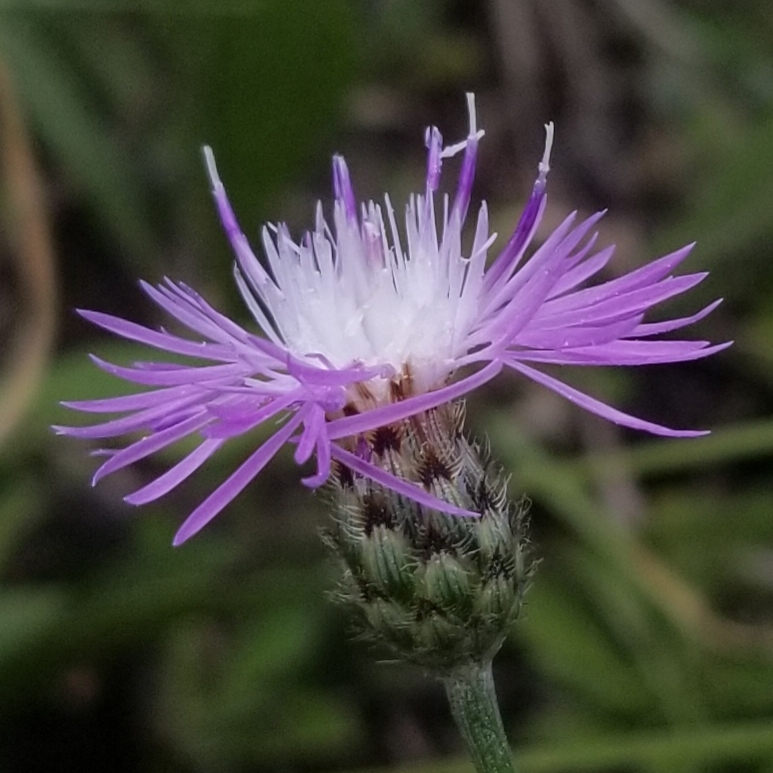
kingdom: Plantae
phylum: Tracheophyta
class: Magnoliopsida
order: Asterales
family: Asteraceae
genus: Centaurea
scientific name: Centaurea stoebe
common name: Spotted knapweed
